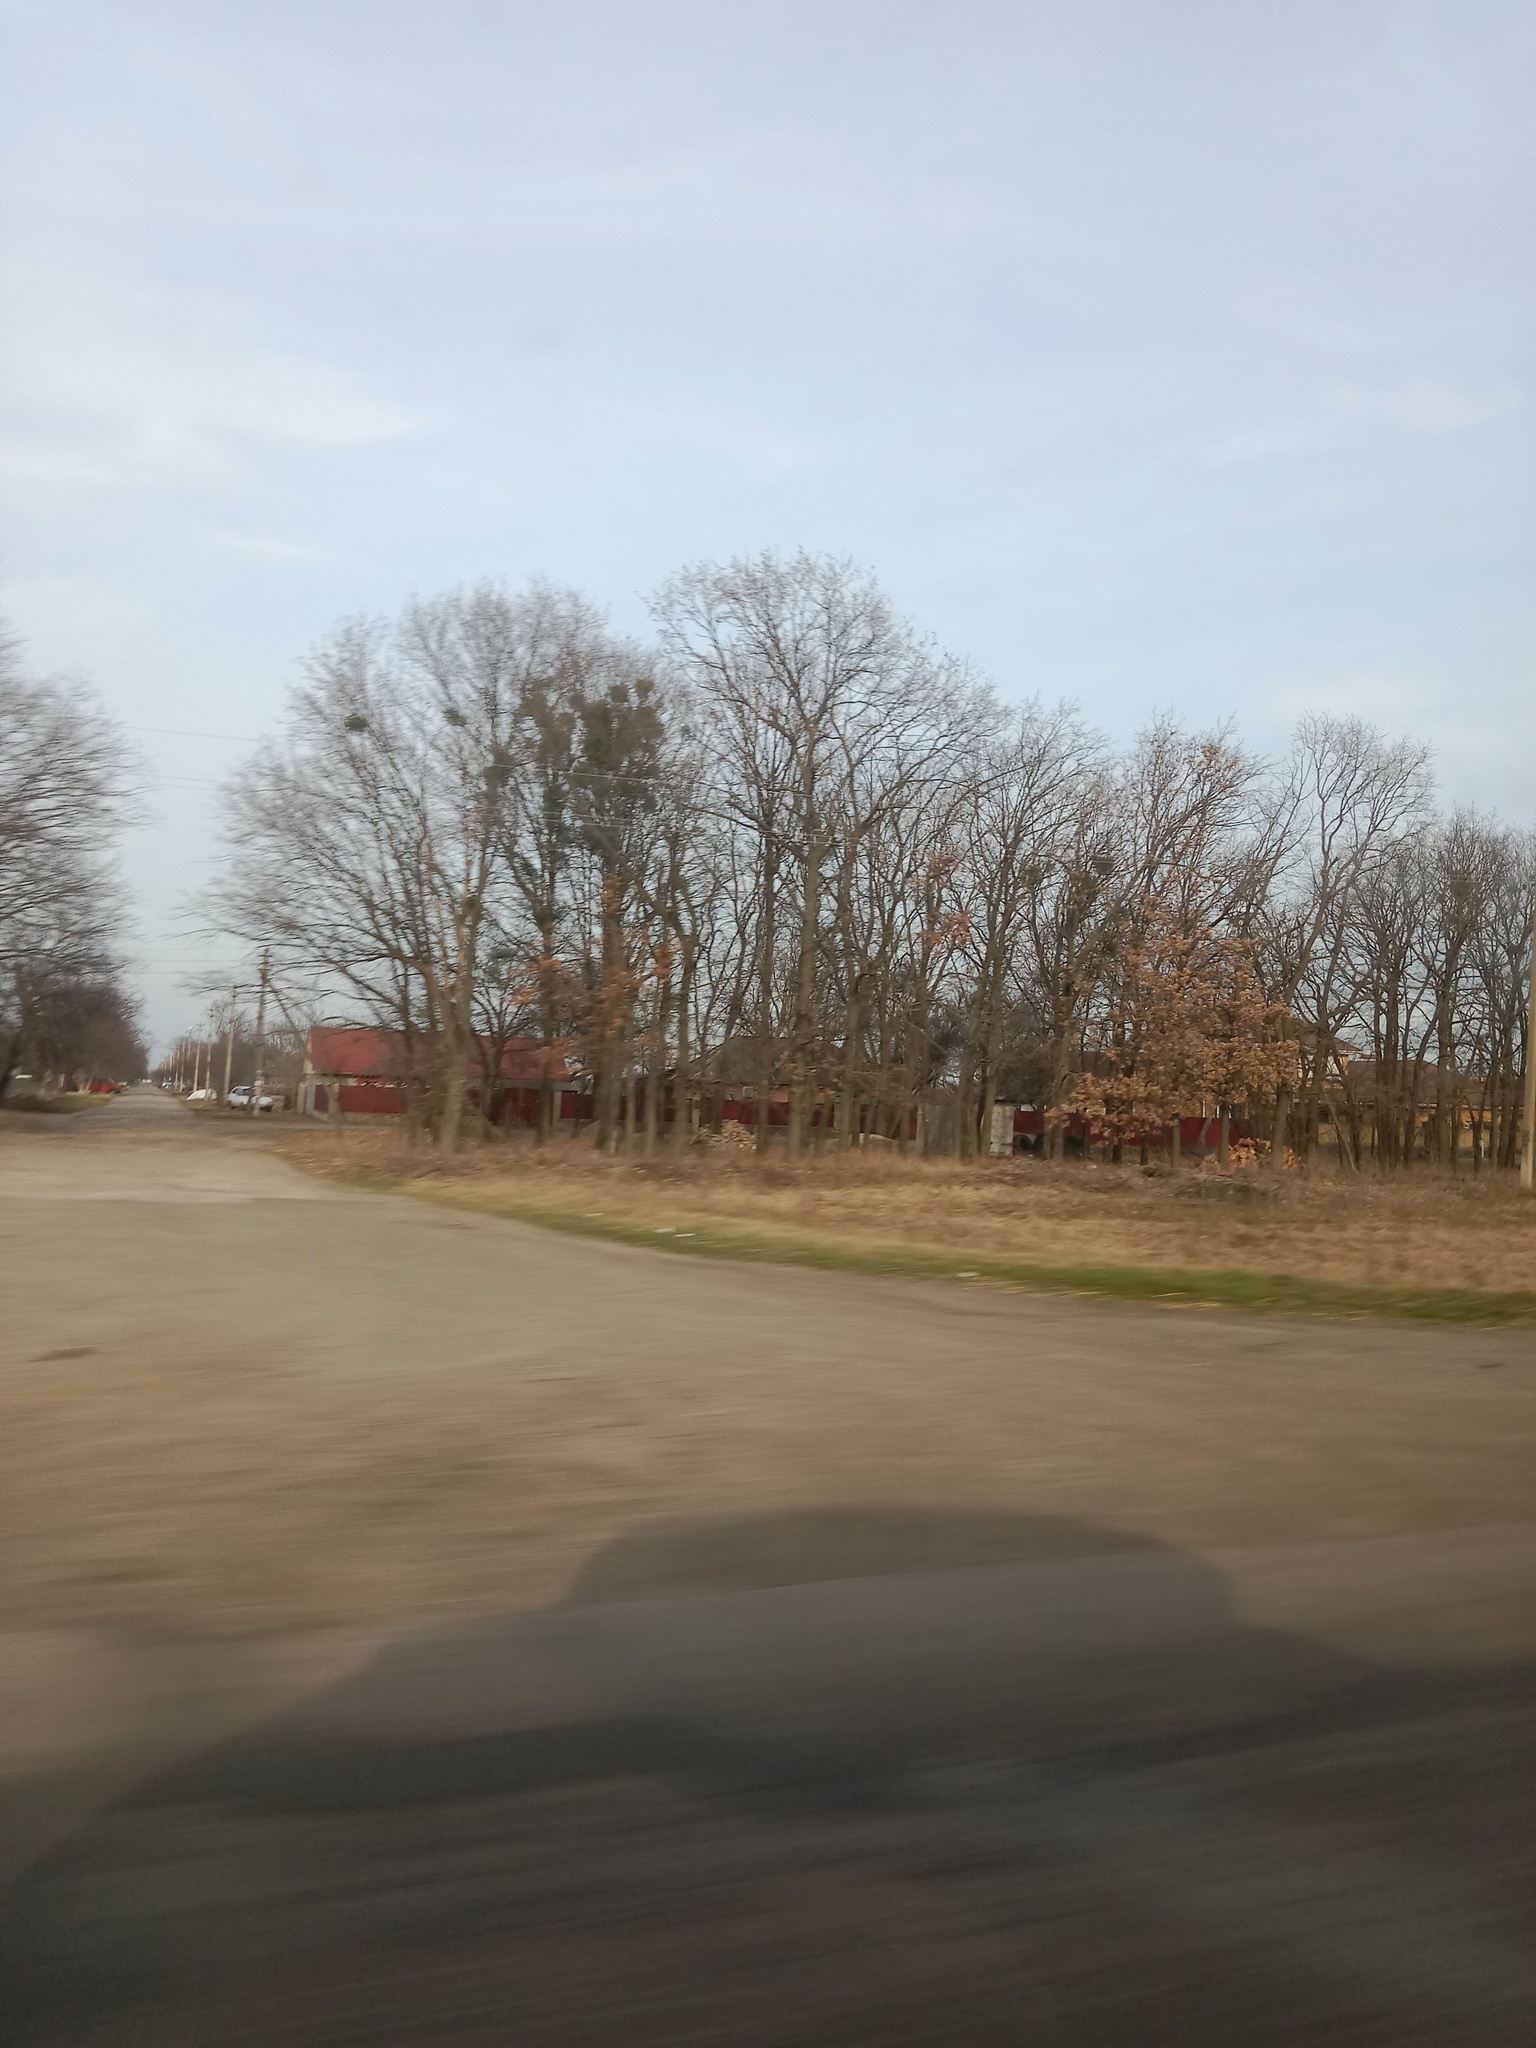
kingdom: Plantae
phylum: Tracheophyta
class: Magnoliopsida
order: Santalales
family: Viscaceae
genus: Viscum
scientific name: Viscum album
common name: Mistletoe
